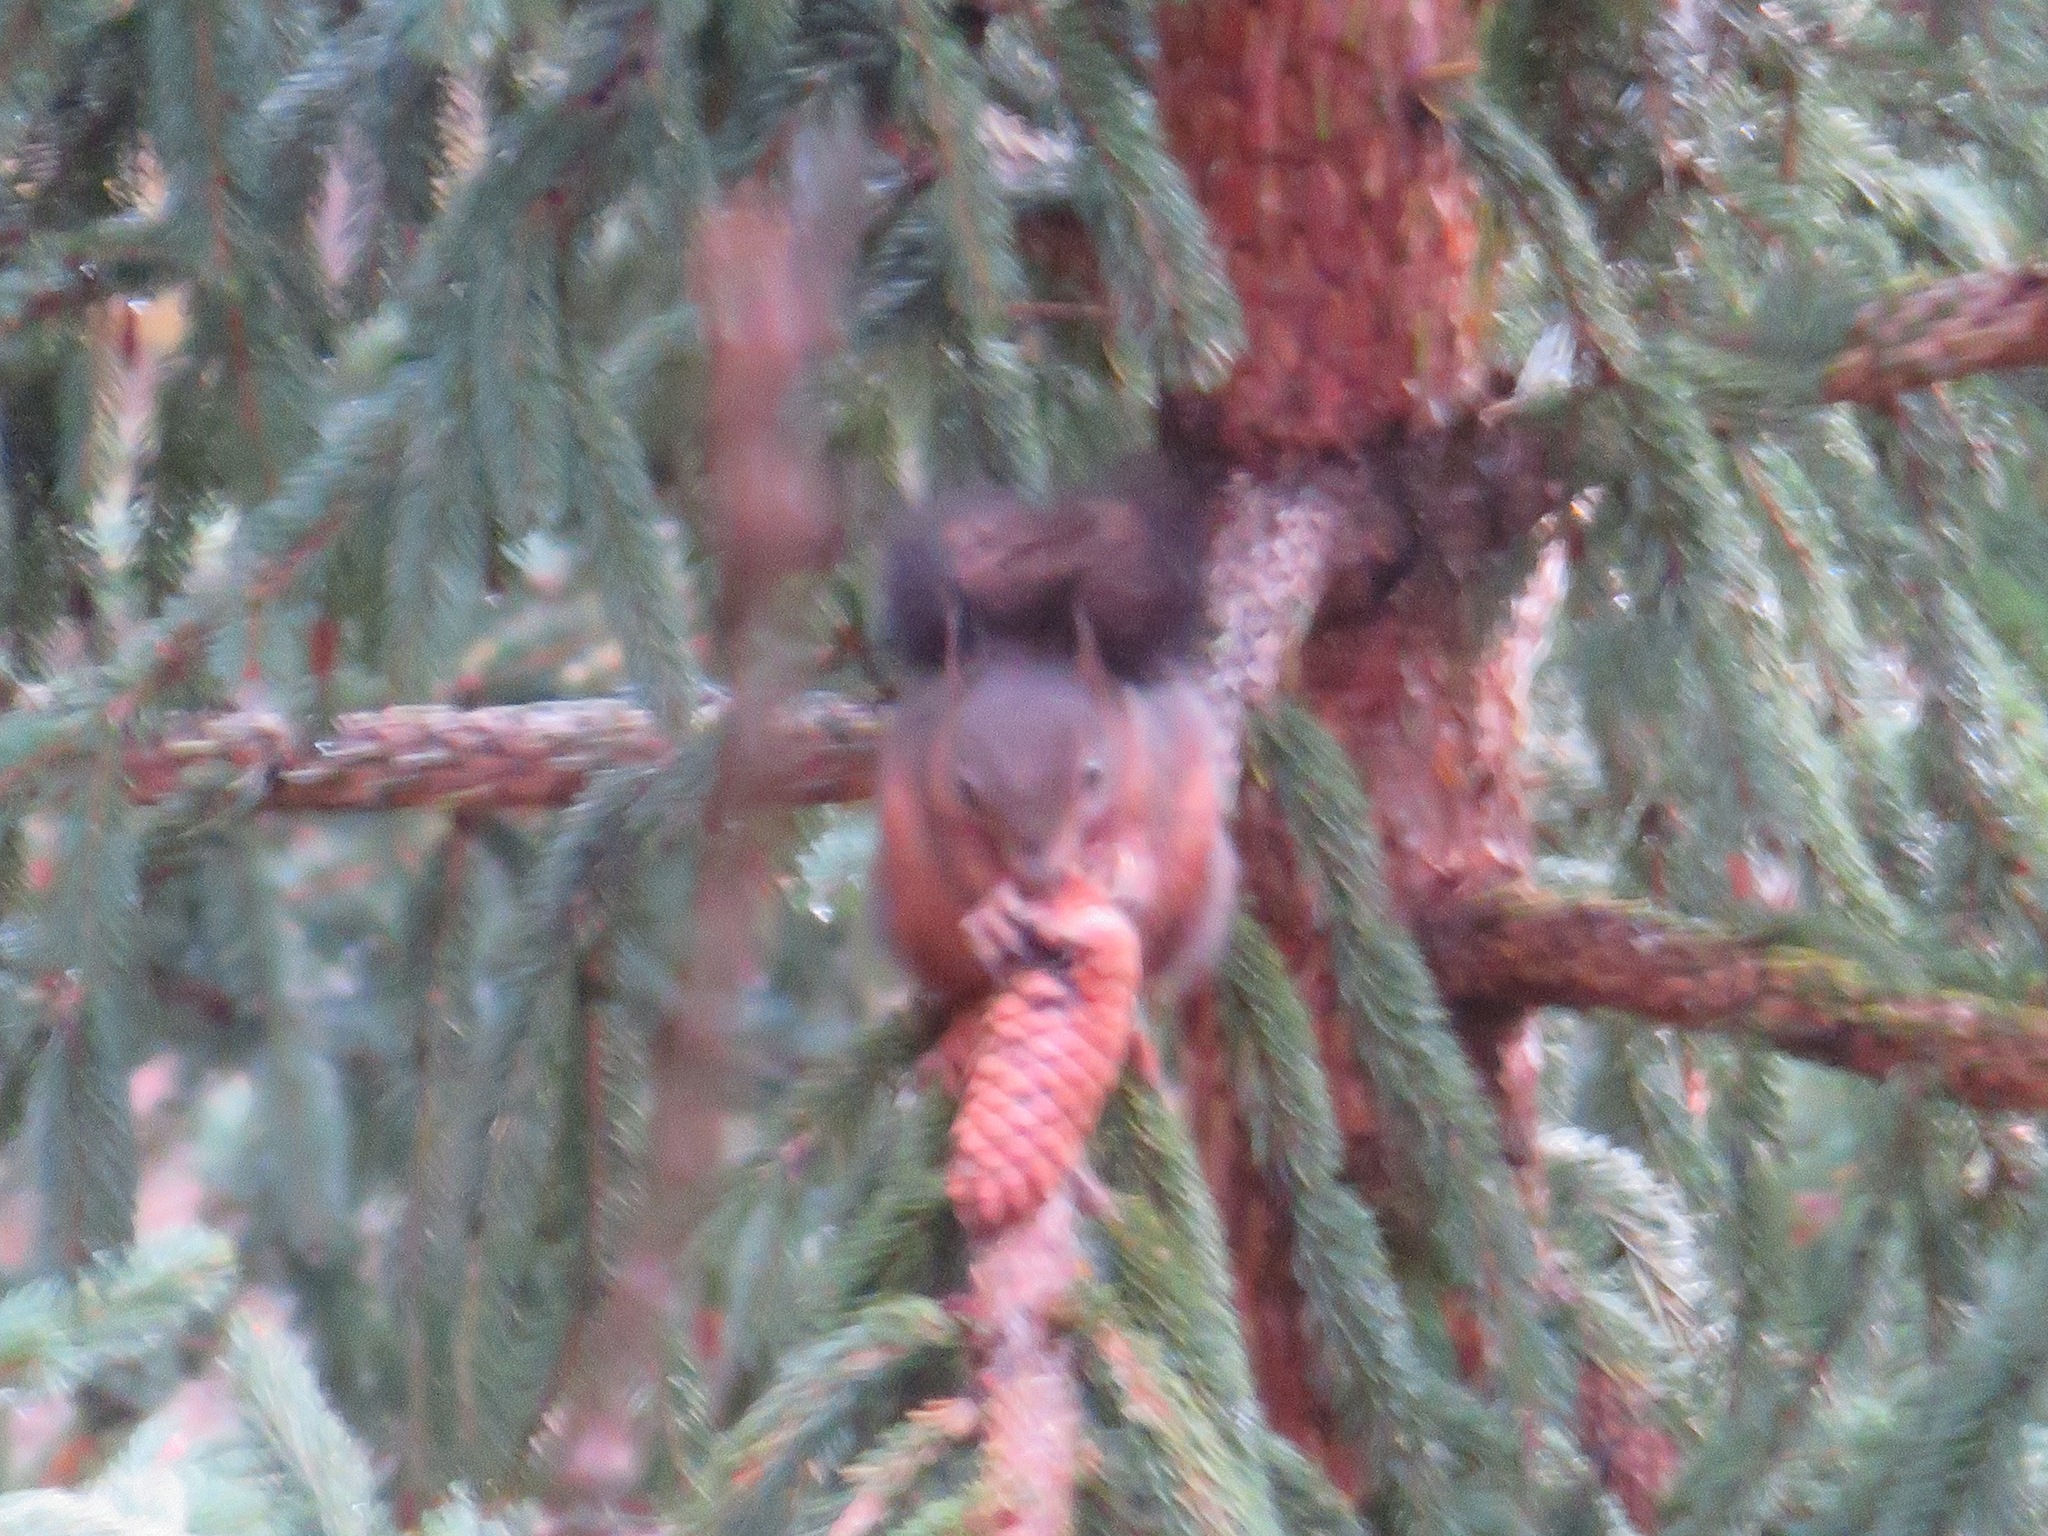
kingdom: Animalia
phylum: Chordata
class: Mammalia
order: Rodentia
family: Sciuridae
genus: Sciurus
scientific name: Sciurus vulgaris
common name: Eurasian red squirrel
